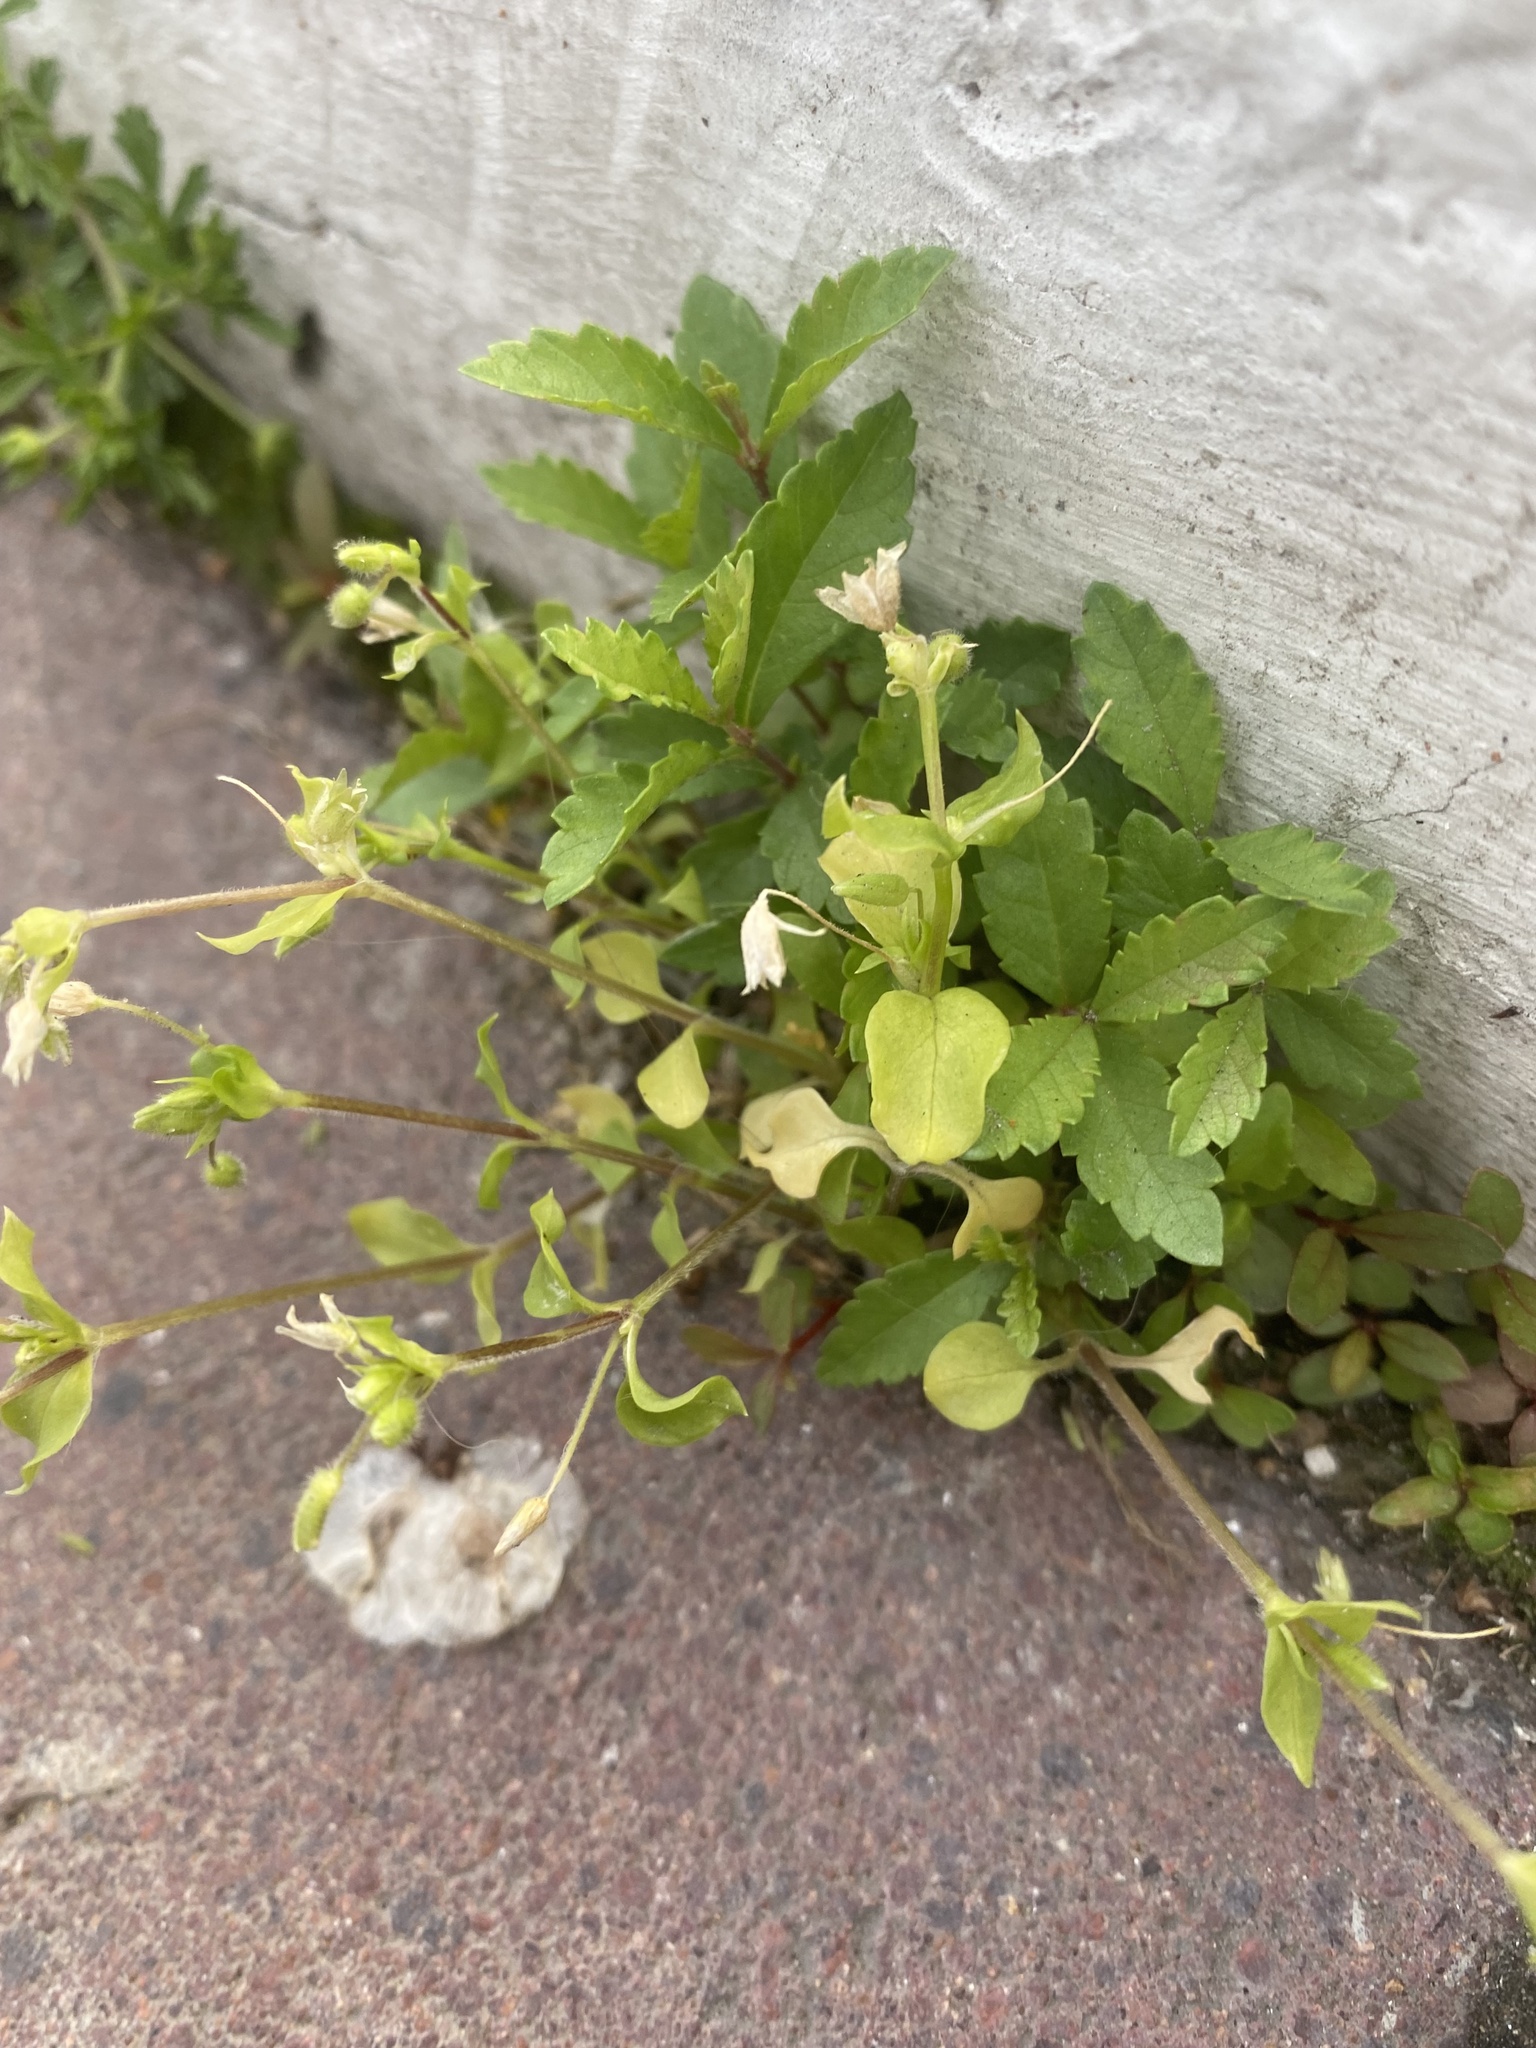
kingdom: Plantae
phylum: Tracheophyta
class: Magnoliopsida
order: Caryophyllales
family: Caryophyllaceae
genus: Stellaria
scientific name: Stellaria media
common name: Common chickweed
